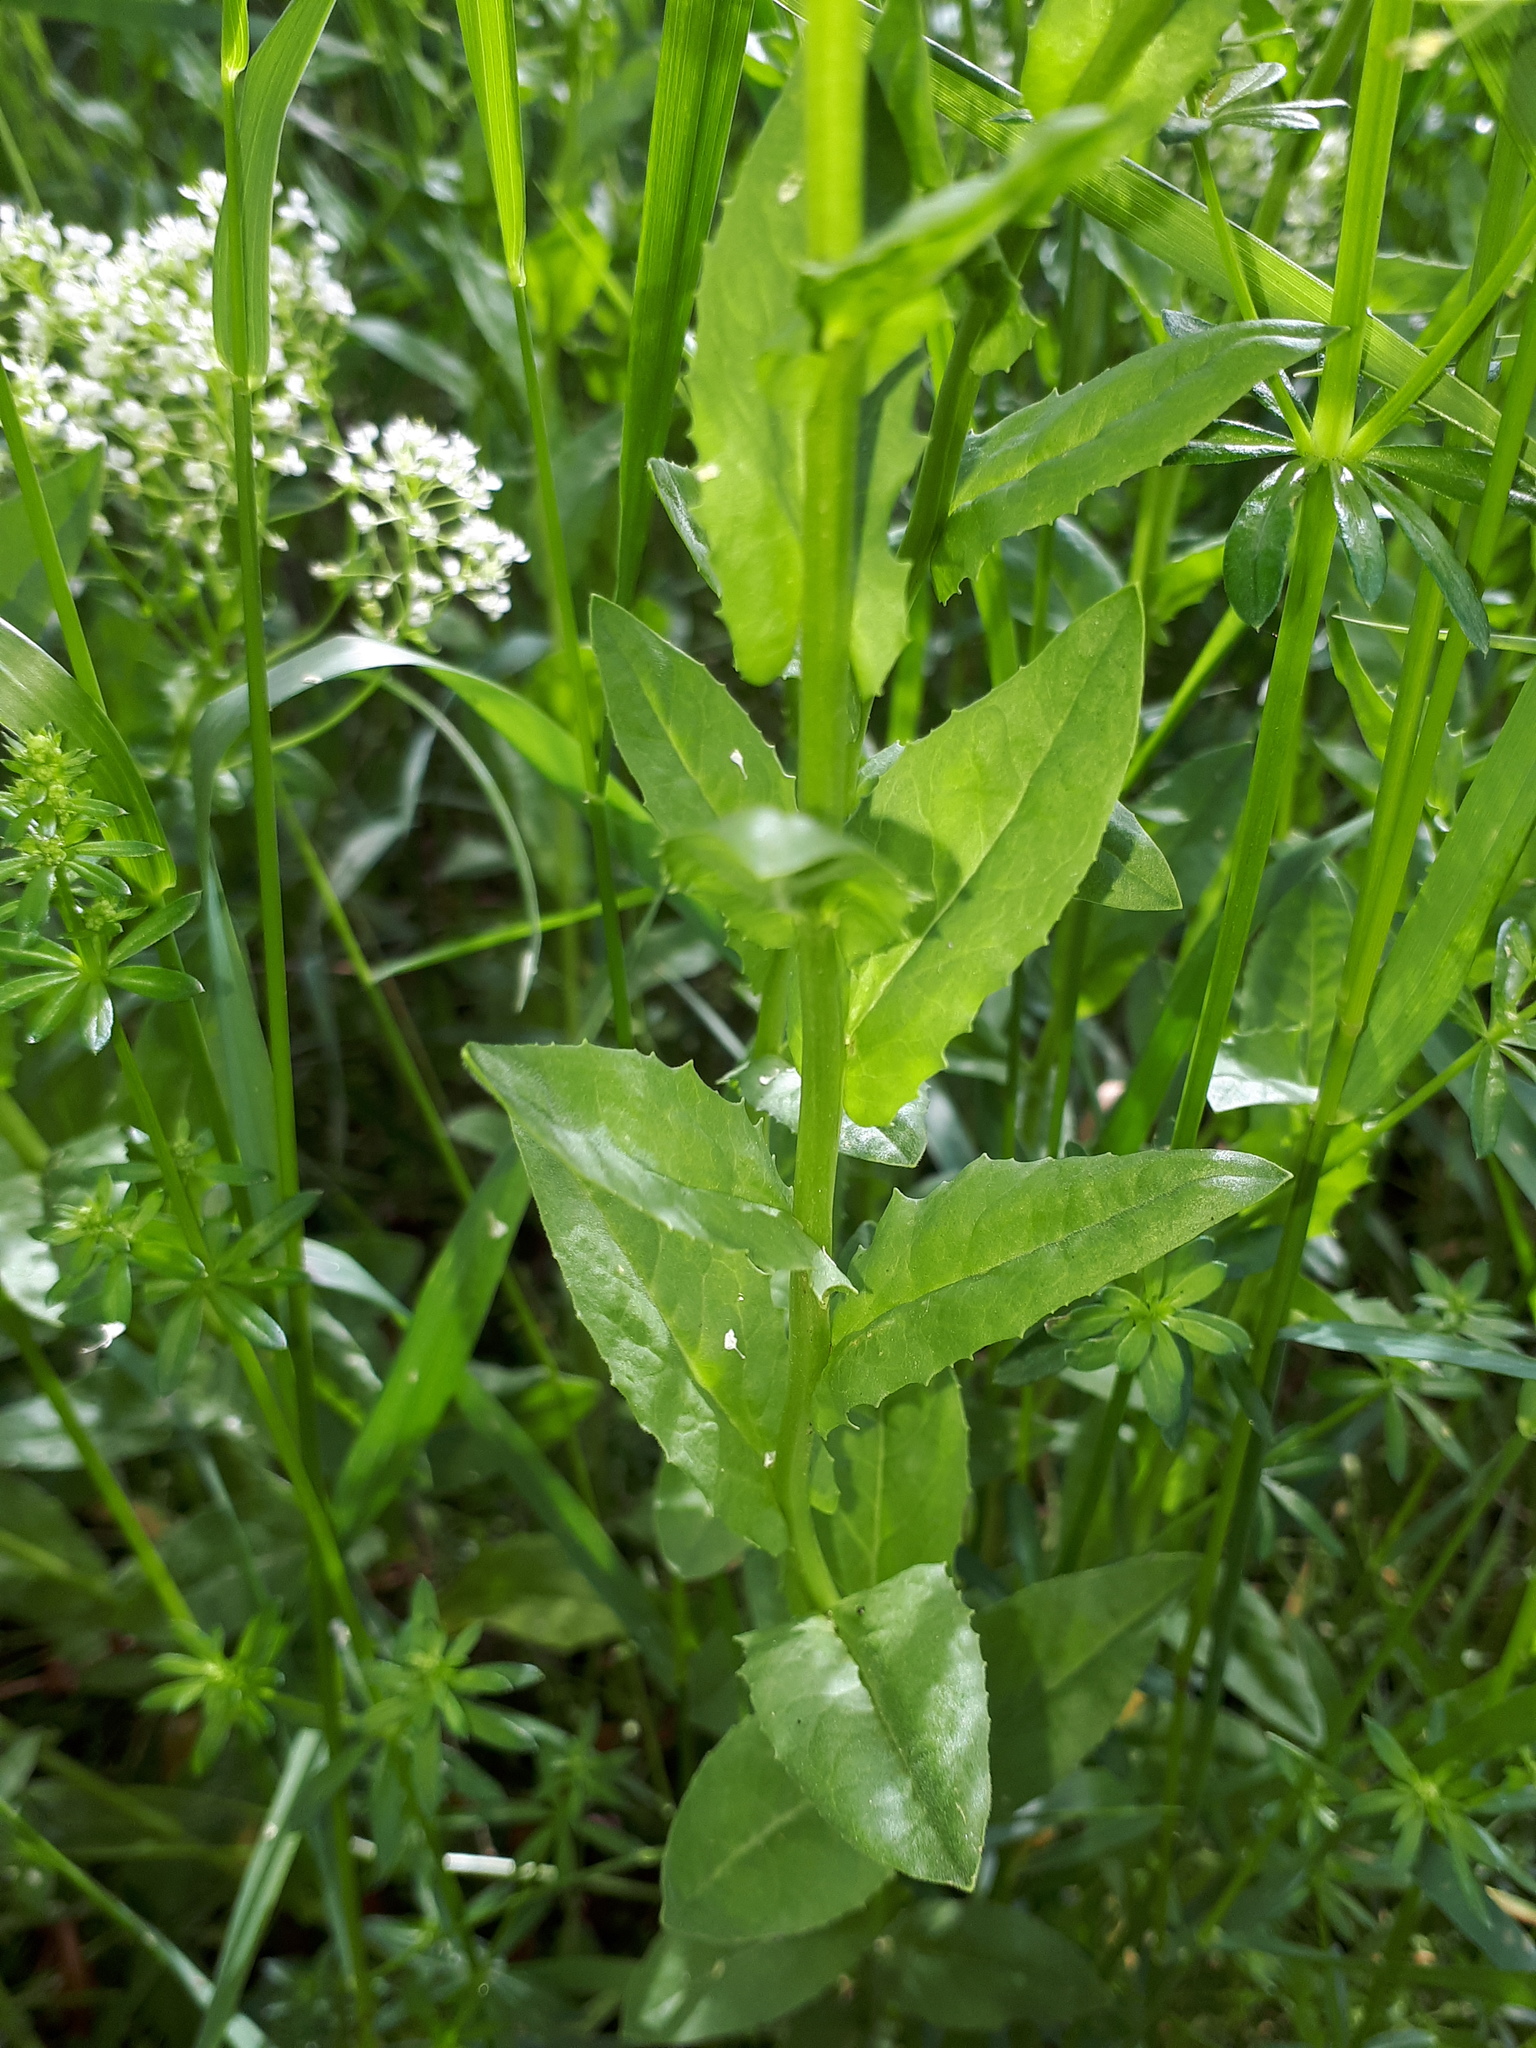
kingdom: Plantae
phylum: Tracheophyta
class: Magnoliopsida
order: Brassicales
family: Brassicaceae
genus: Lepidium
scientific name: Lepidium draba
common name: Hoary cress
